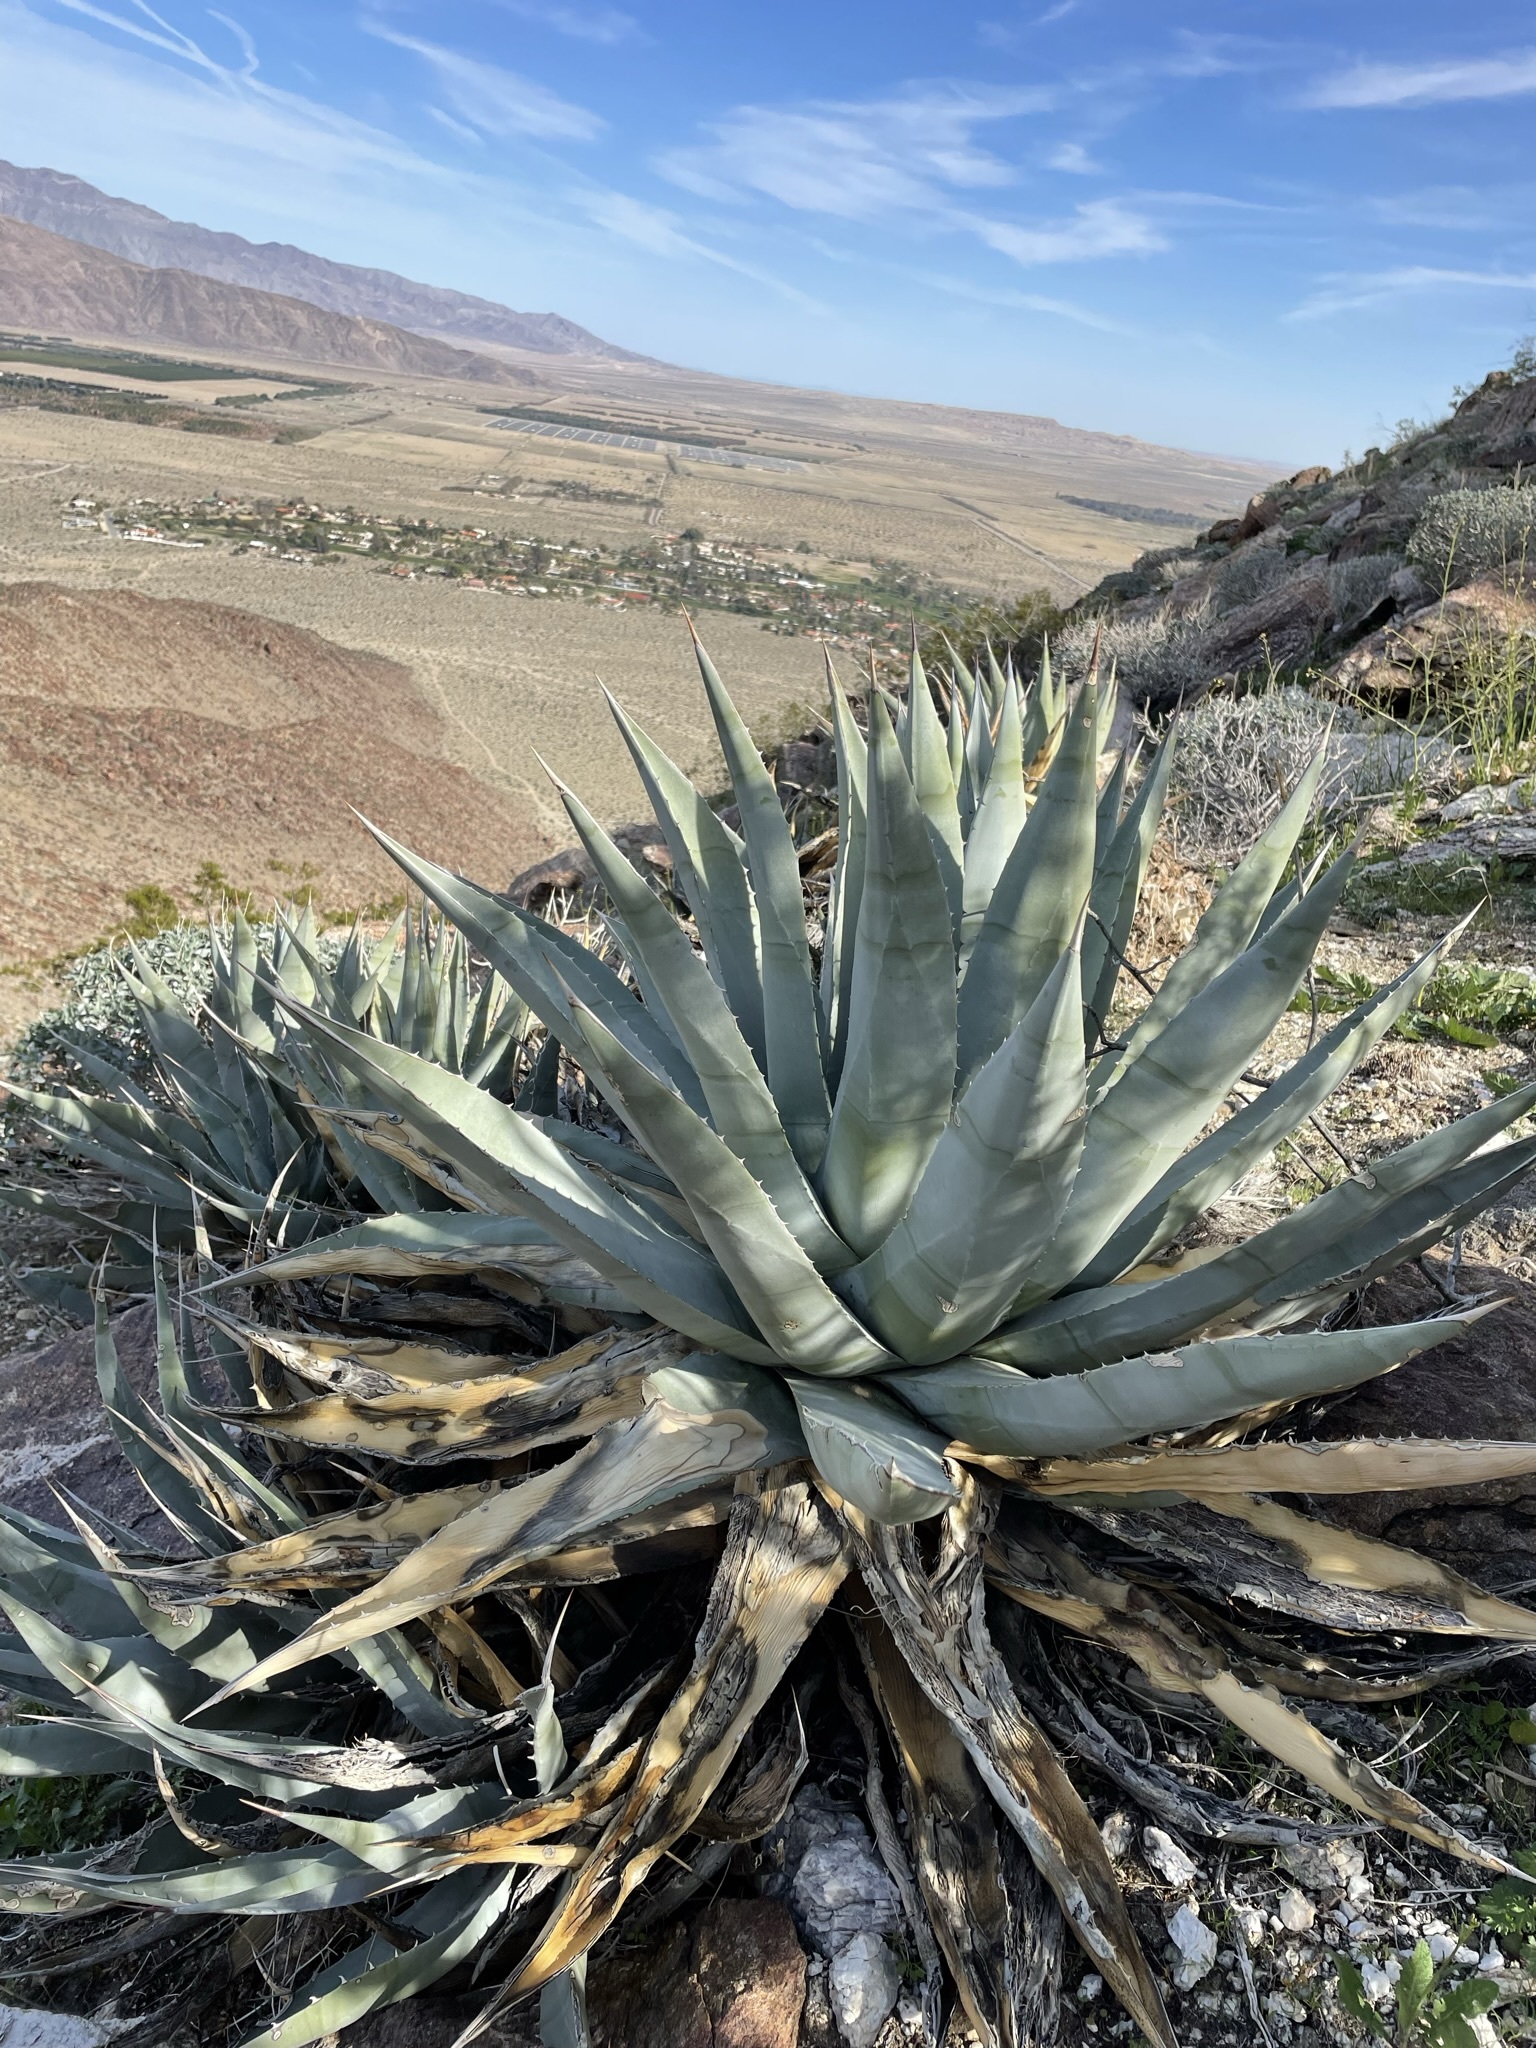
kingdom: Plantae
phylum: Tracheophyta
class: Liliopsida
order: Asparagales
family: Asparagaceae
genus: Agave
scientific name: Agave deserti
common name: Desert agave
